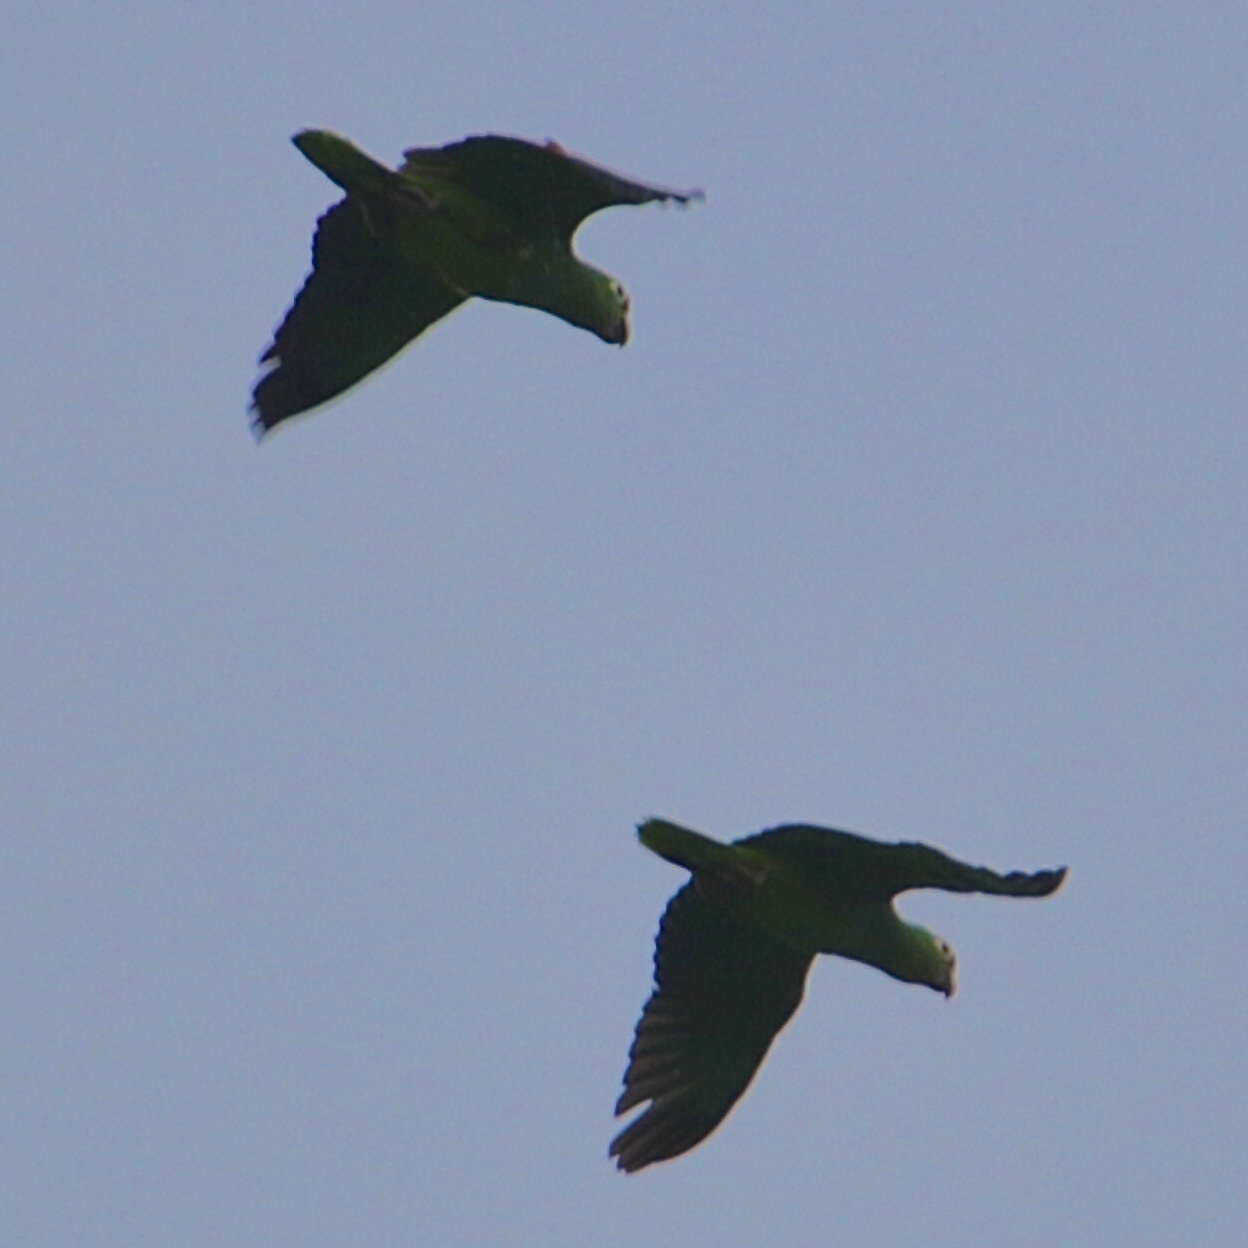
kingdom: Animalia
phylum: Chordata
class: Aves
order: Psittaciformes
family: Psittacidae
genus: Amazona
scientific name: Amazona autumnalis
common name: Red-lored amazon
